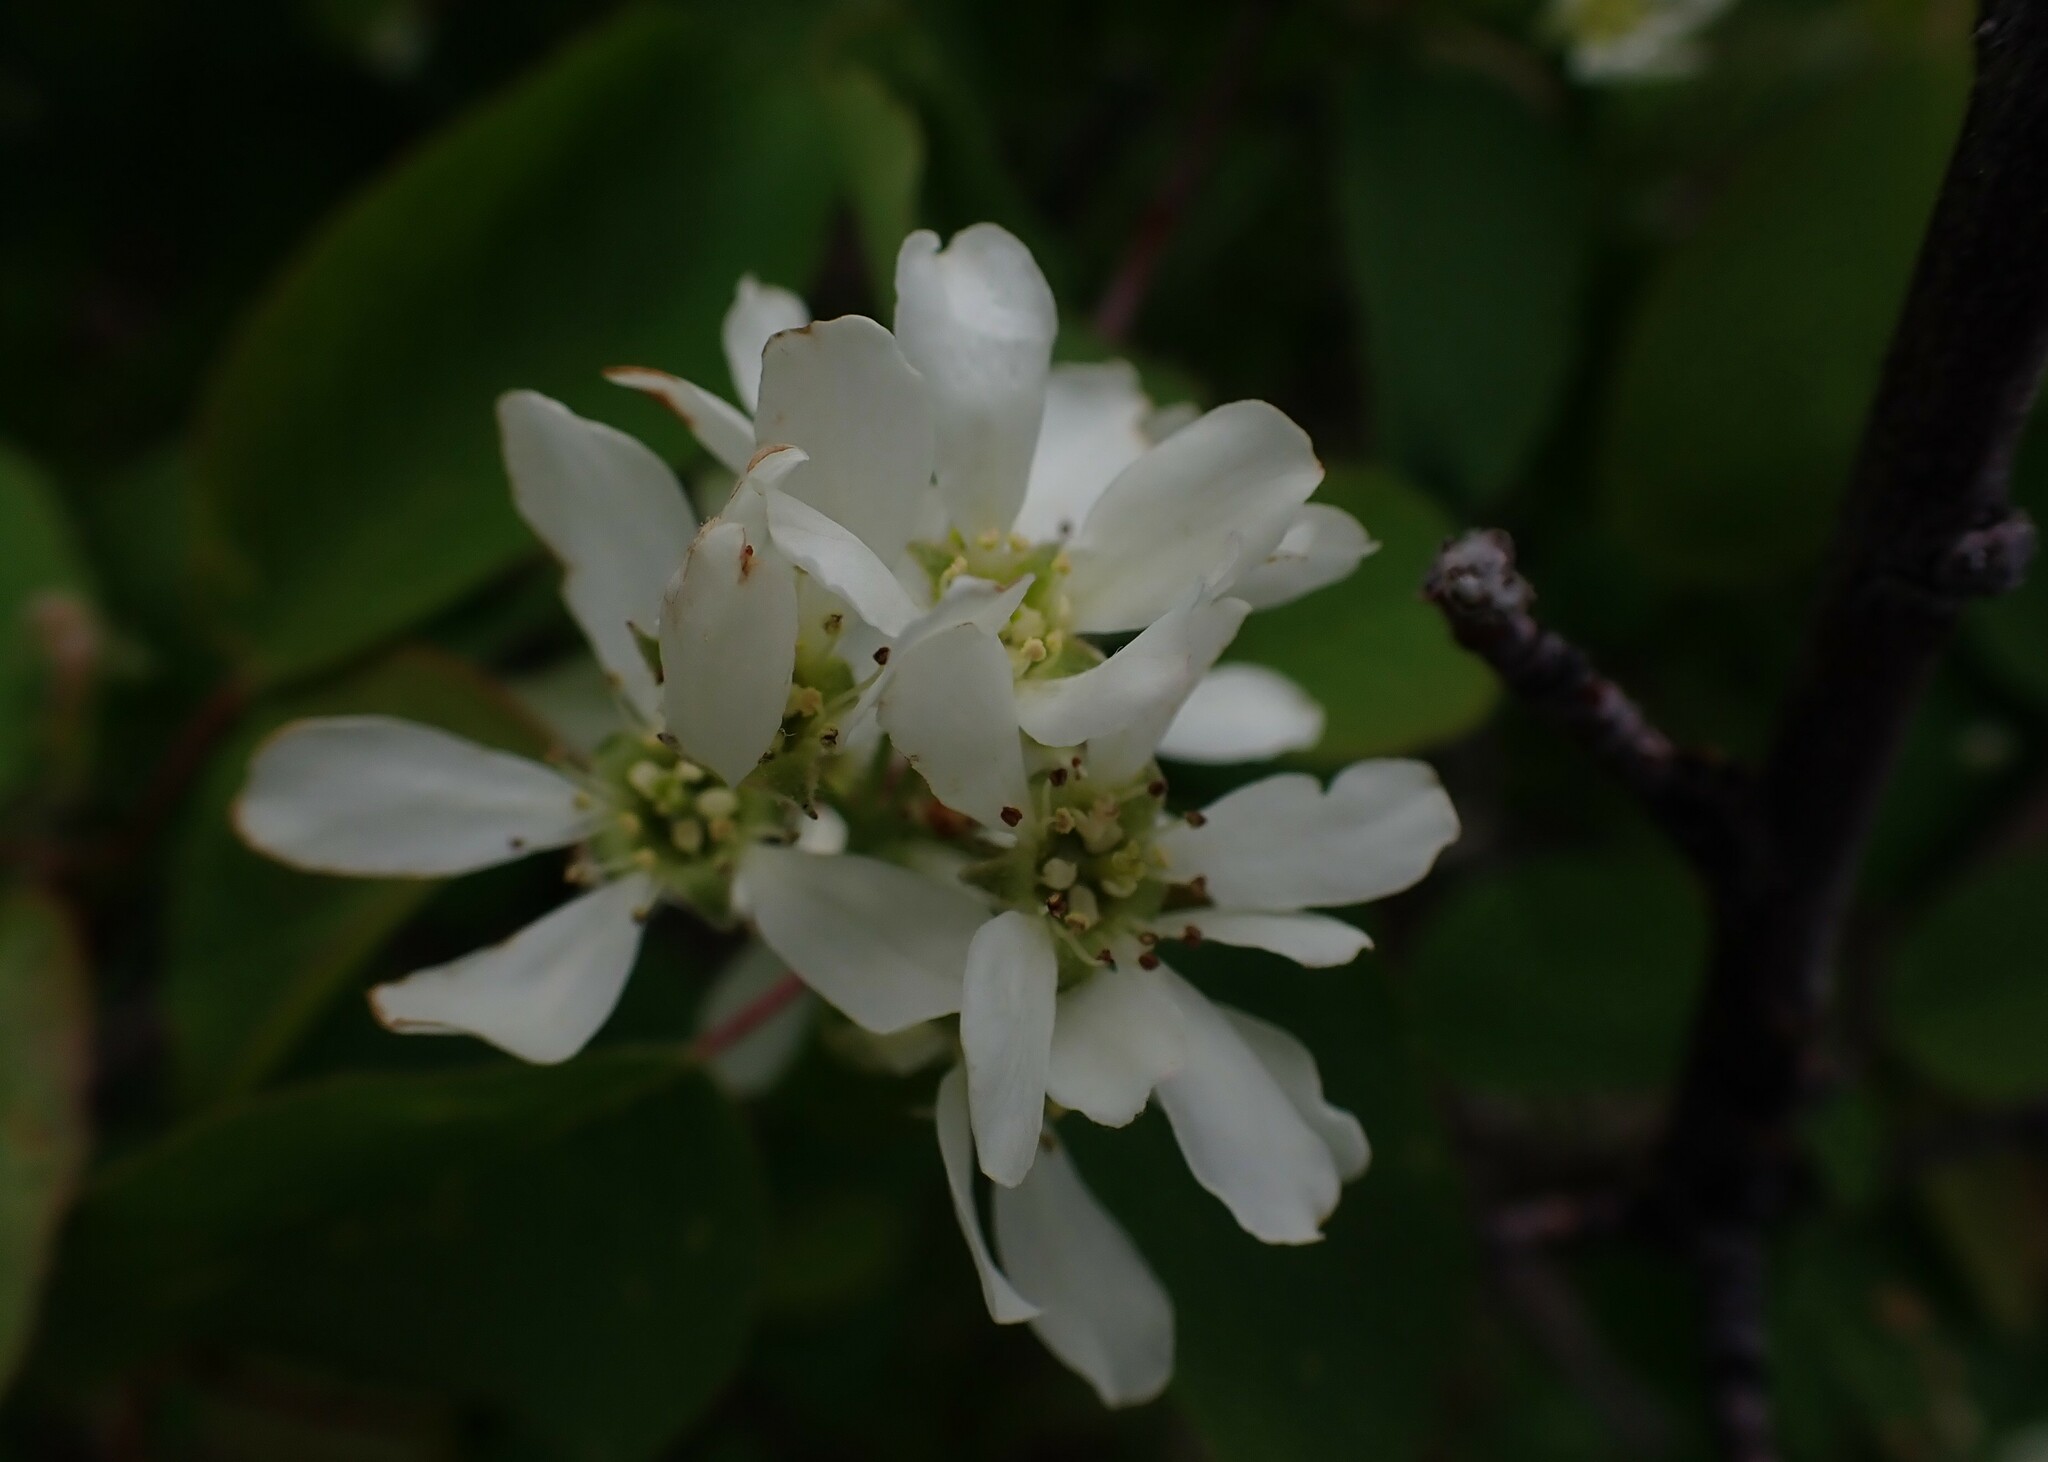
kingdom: Plantae
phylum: Tracheophyta
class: Magnoliopsida
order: Rosales
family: Rosaceae
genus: Amelanchier
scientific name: Amelanchier alnifolia
